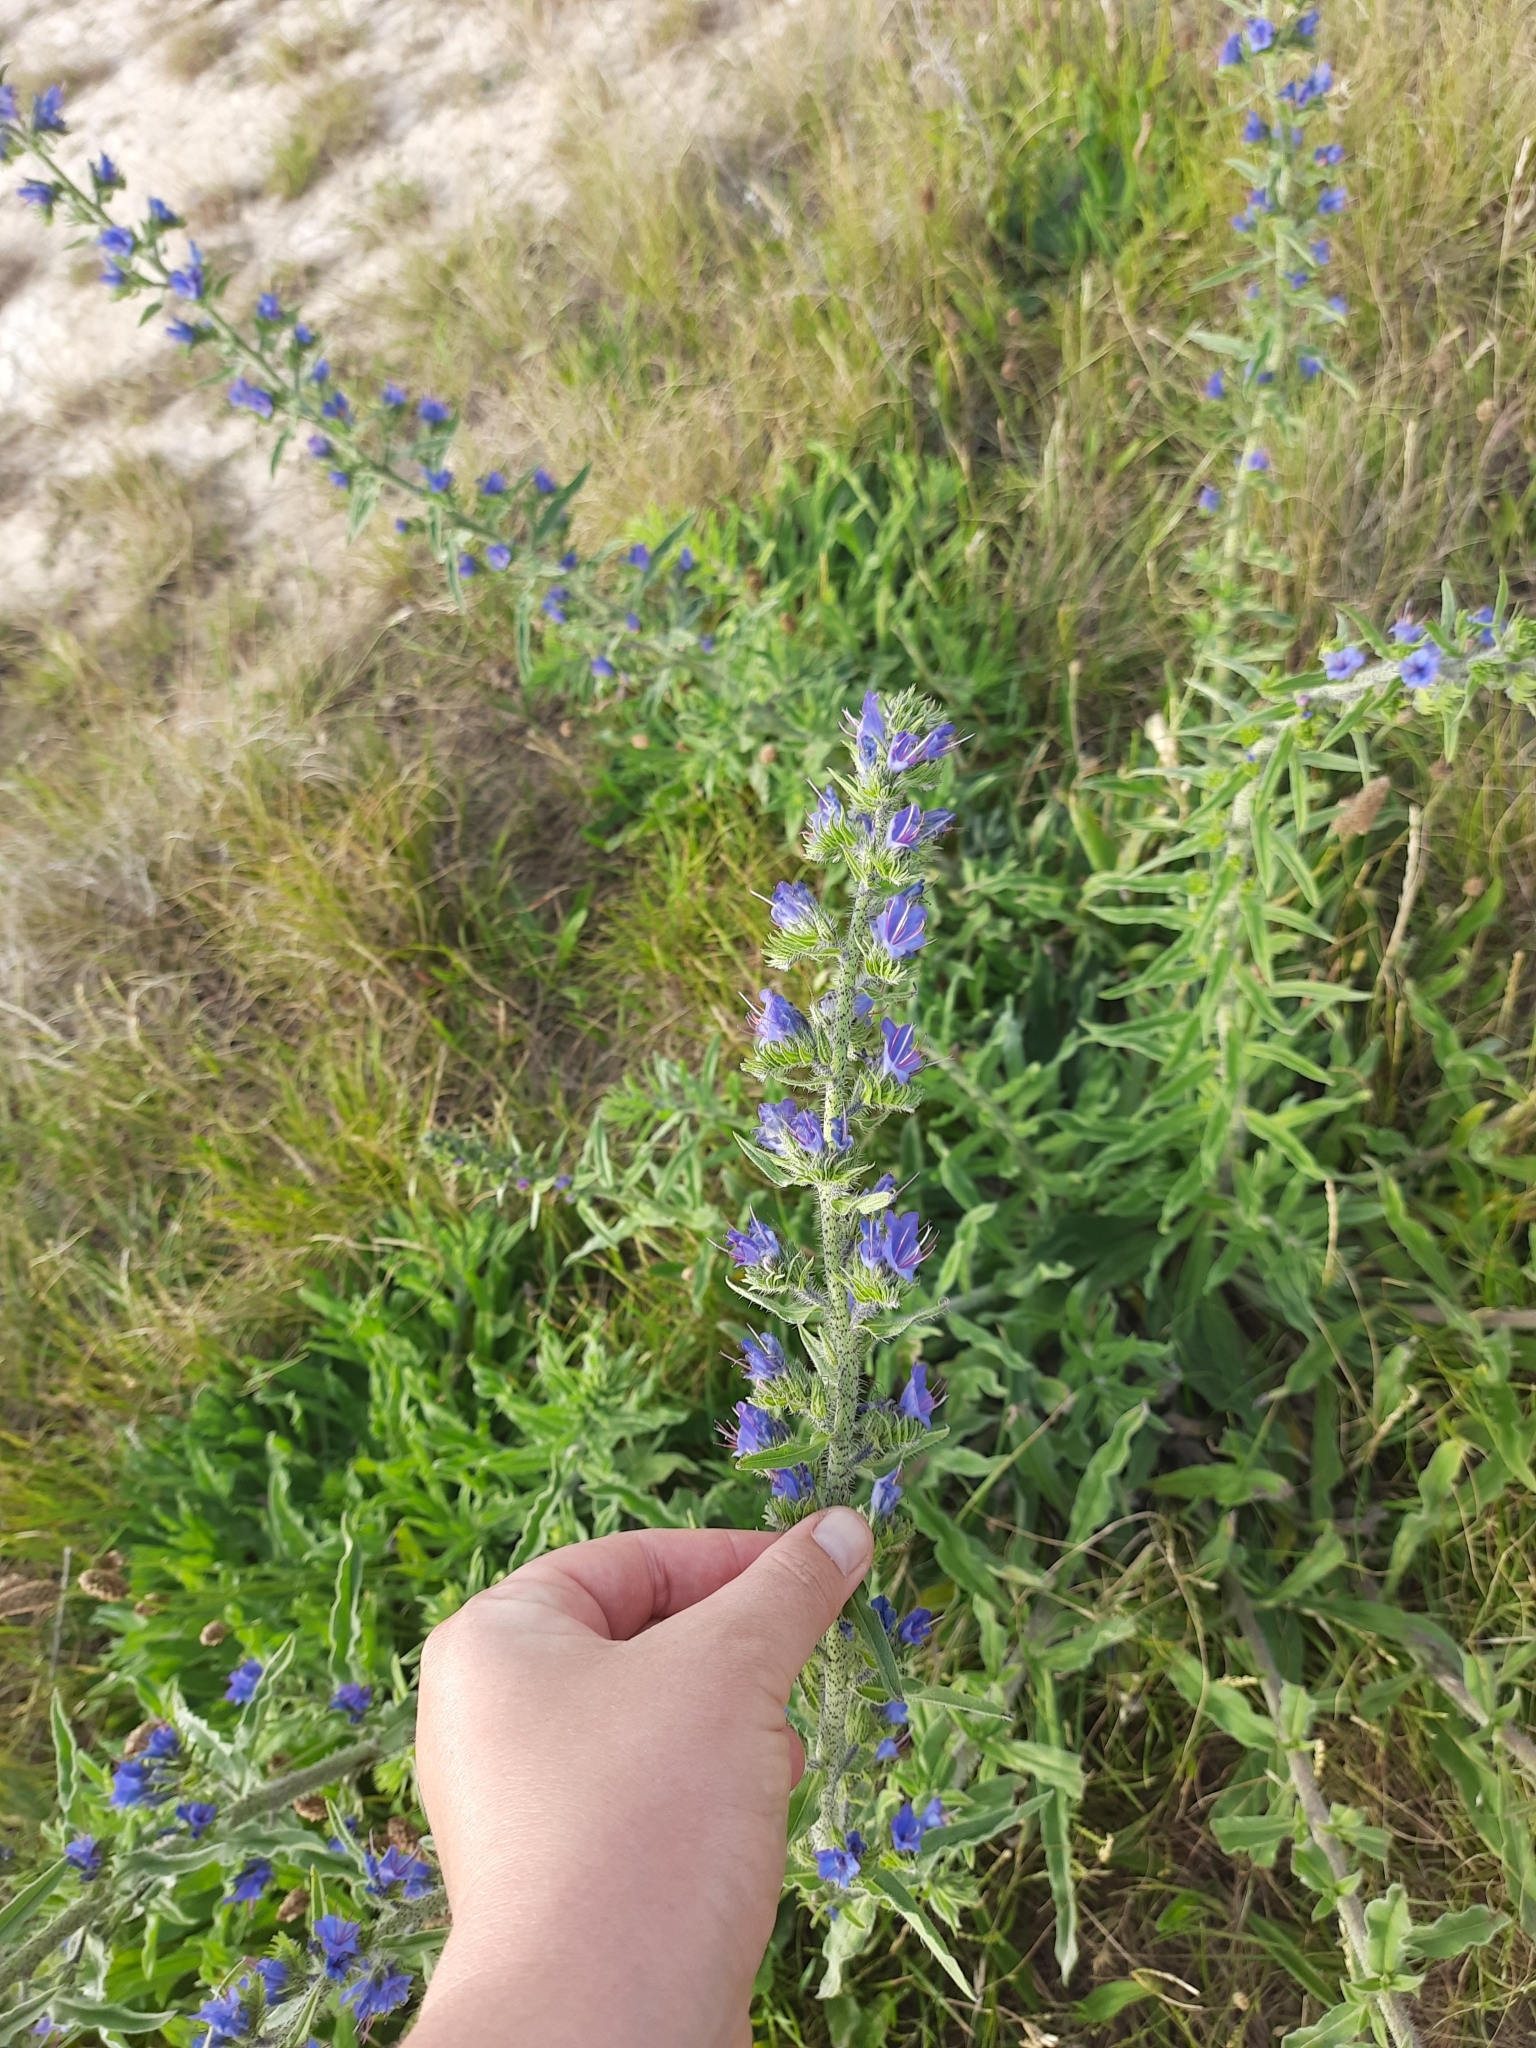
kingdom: Plantae
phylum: Tracheophyta
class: Magnoliopsida
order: Boraginales
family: Boraginaceae
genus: Echium
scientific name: Echium vulgare
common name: Common viper's bugloss
